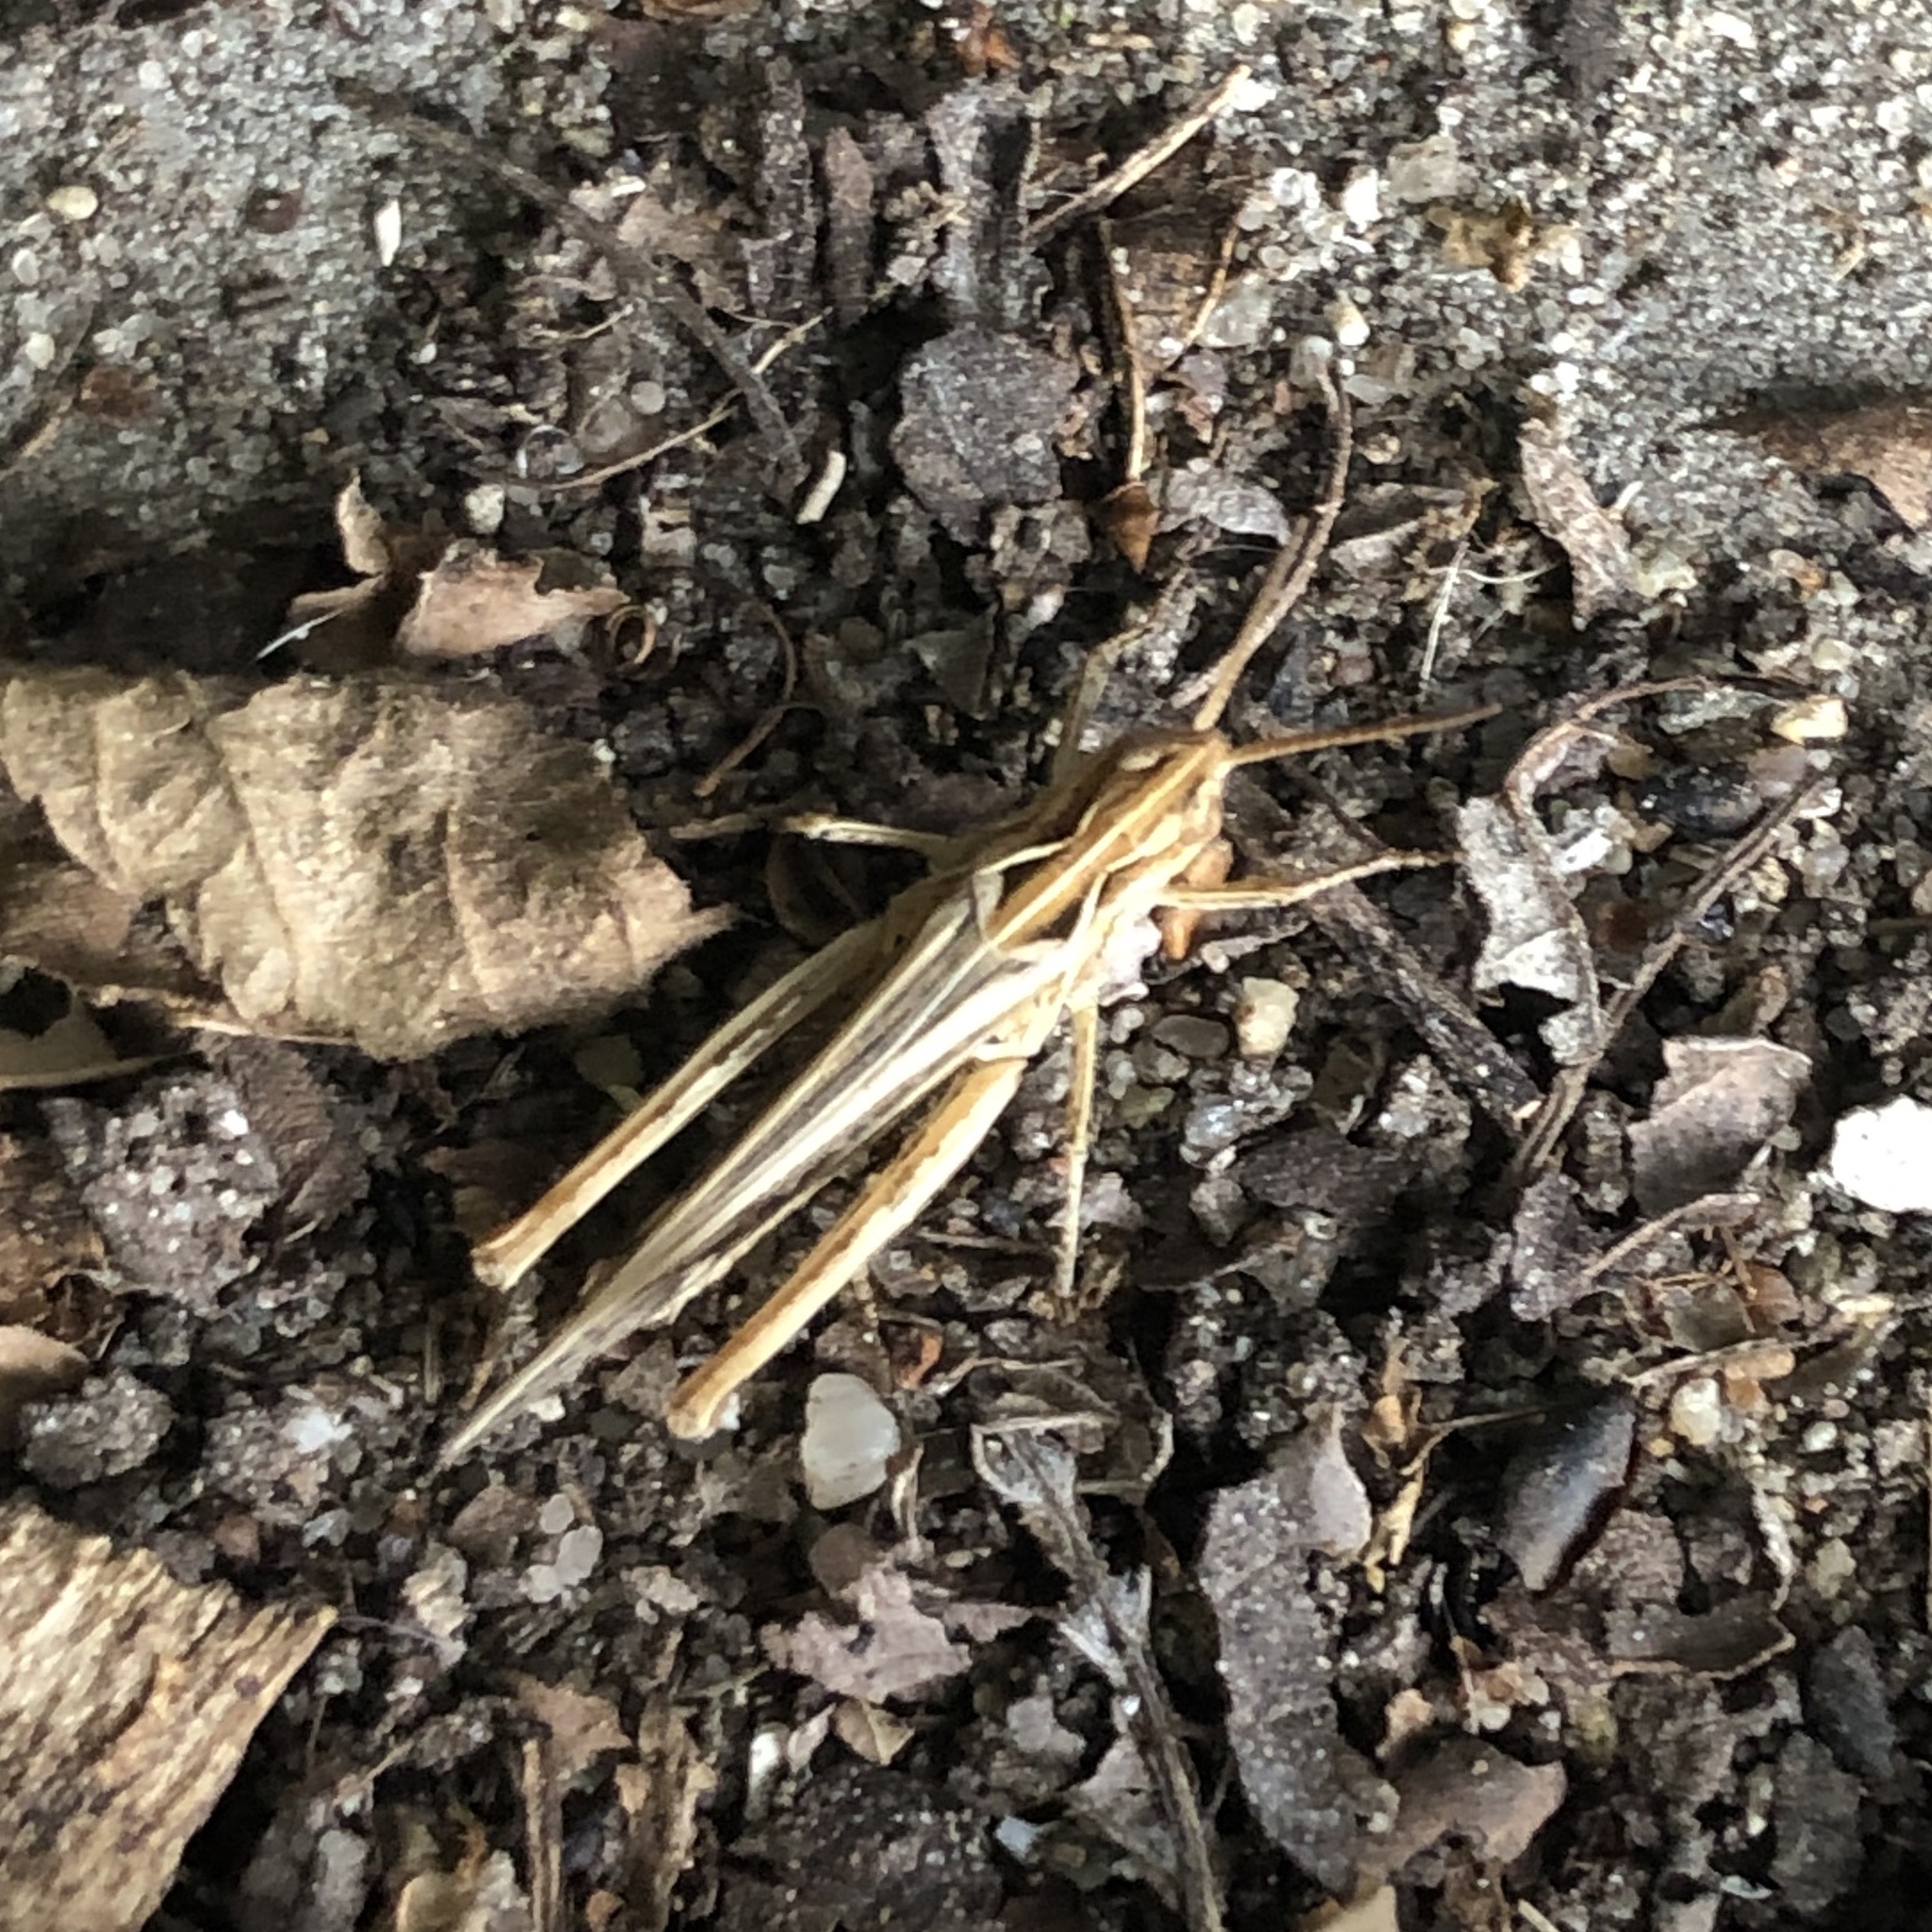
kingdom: Animalia
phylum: Arthropoda
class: Insecta
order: Orthoptera
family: Acrididae
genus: Chorthippus
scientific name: Chorthippus brunneus
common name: Field grasshopper
